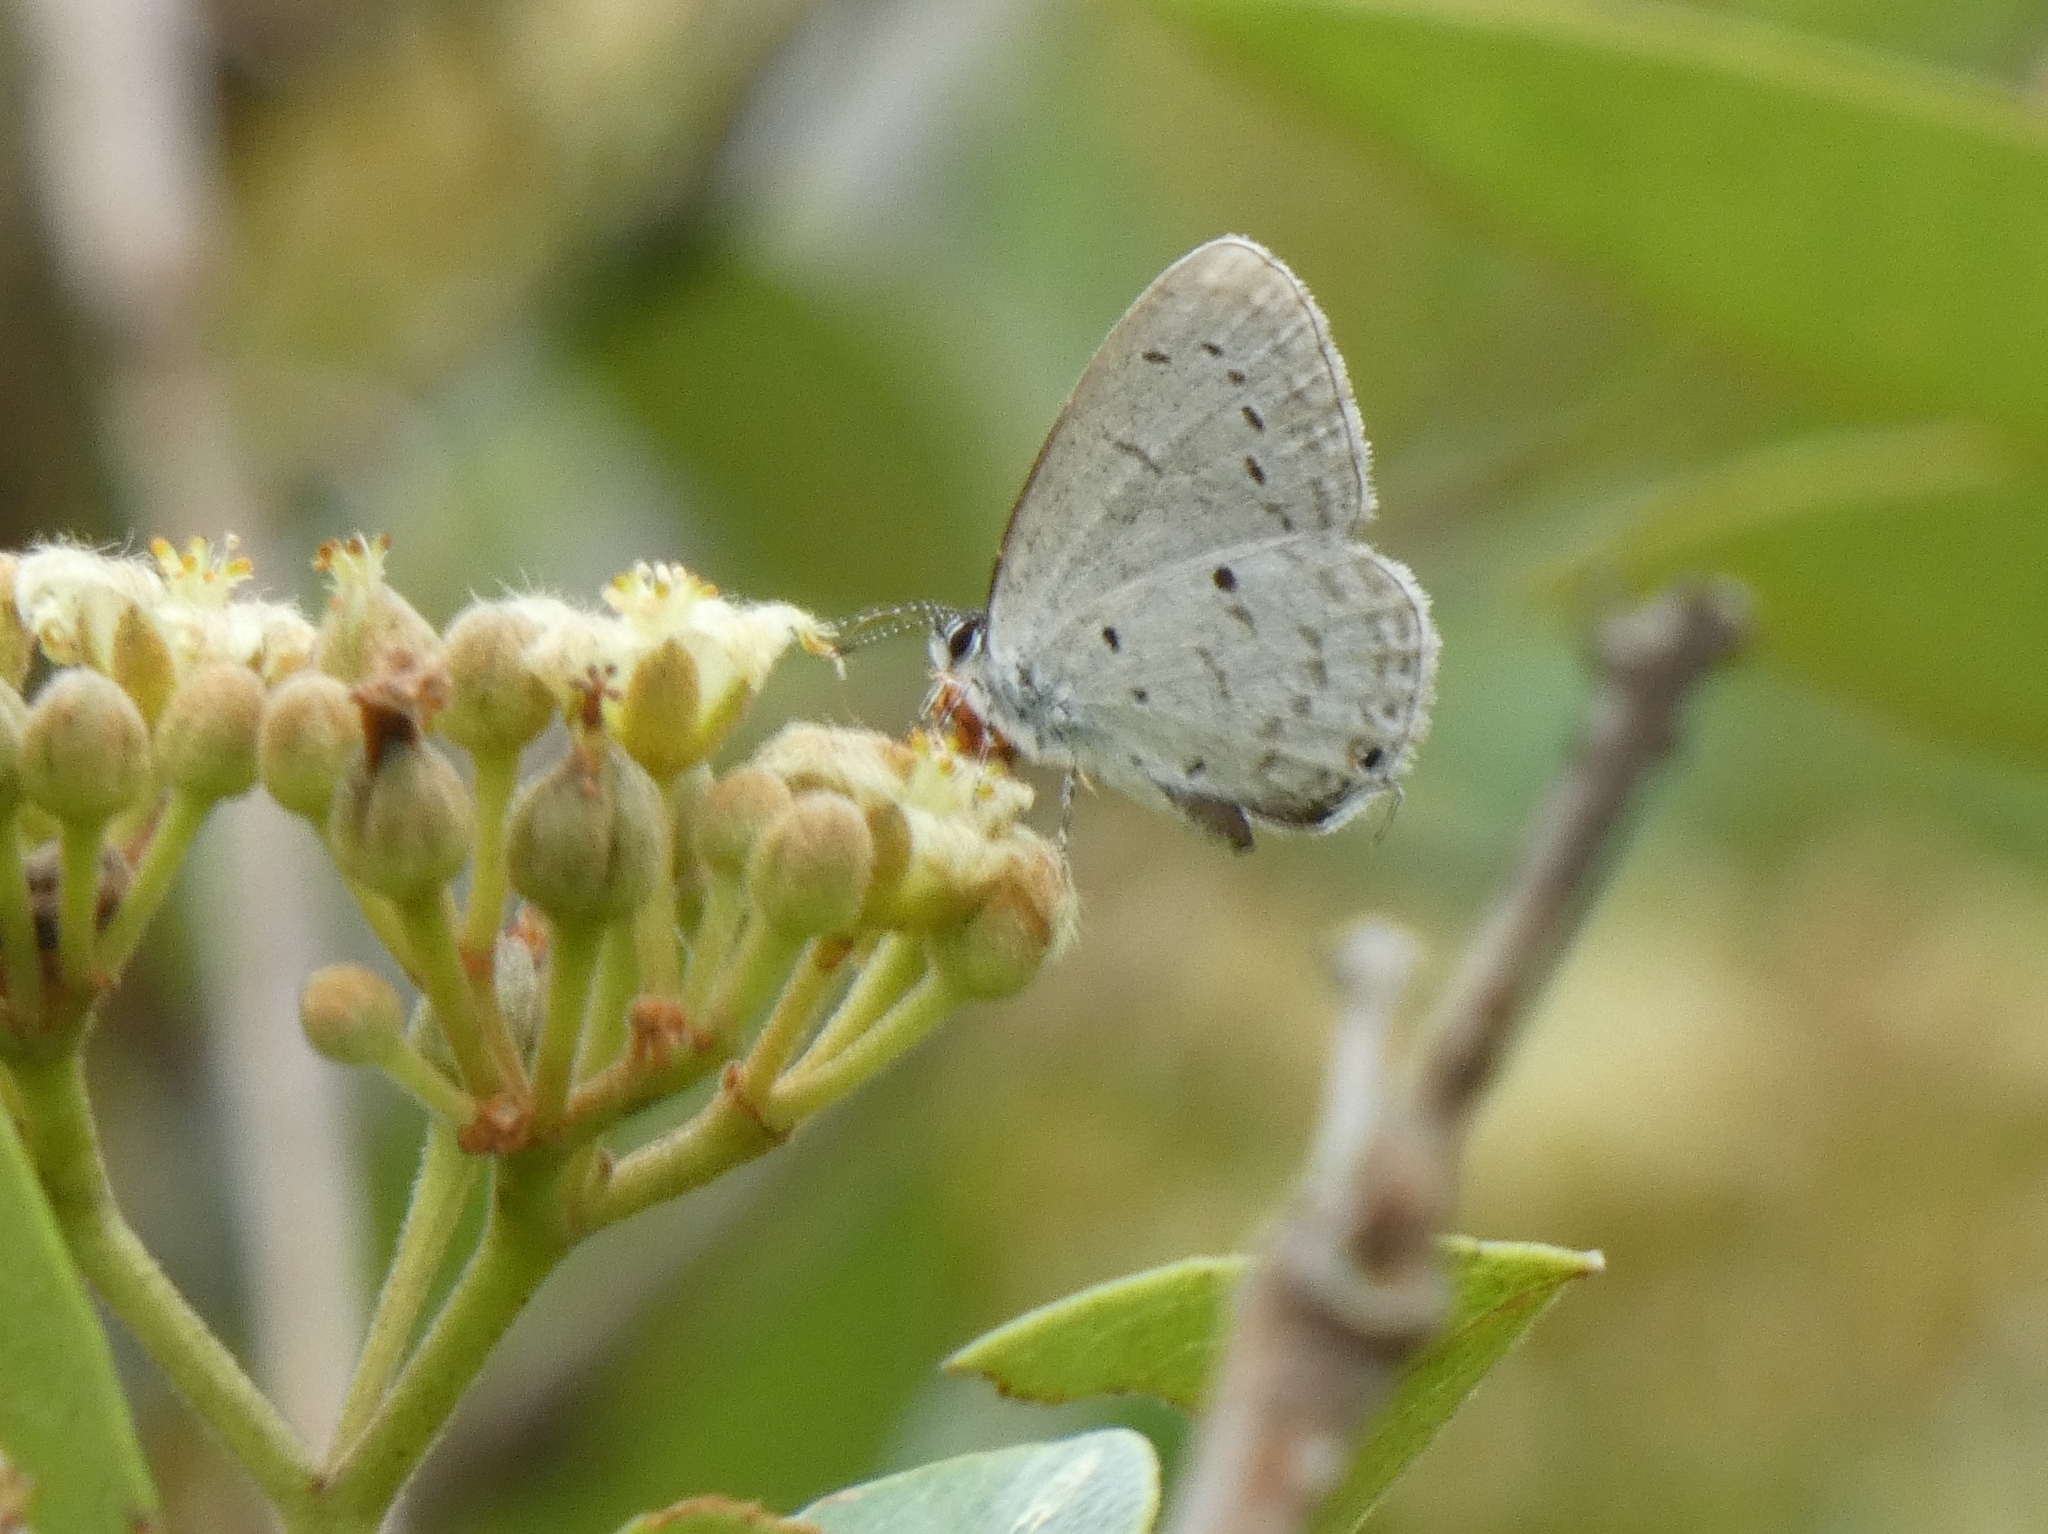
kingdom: Animalia
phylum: Arthropoda
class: Insecta
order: Lepidoptera
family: Lycaenidae
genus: Eicochrysops
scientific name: Eicochrysops hippocrates
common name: White-tipped blue
